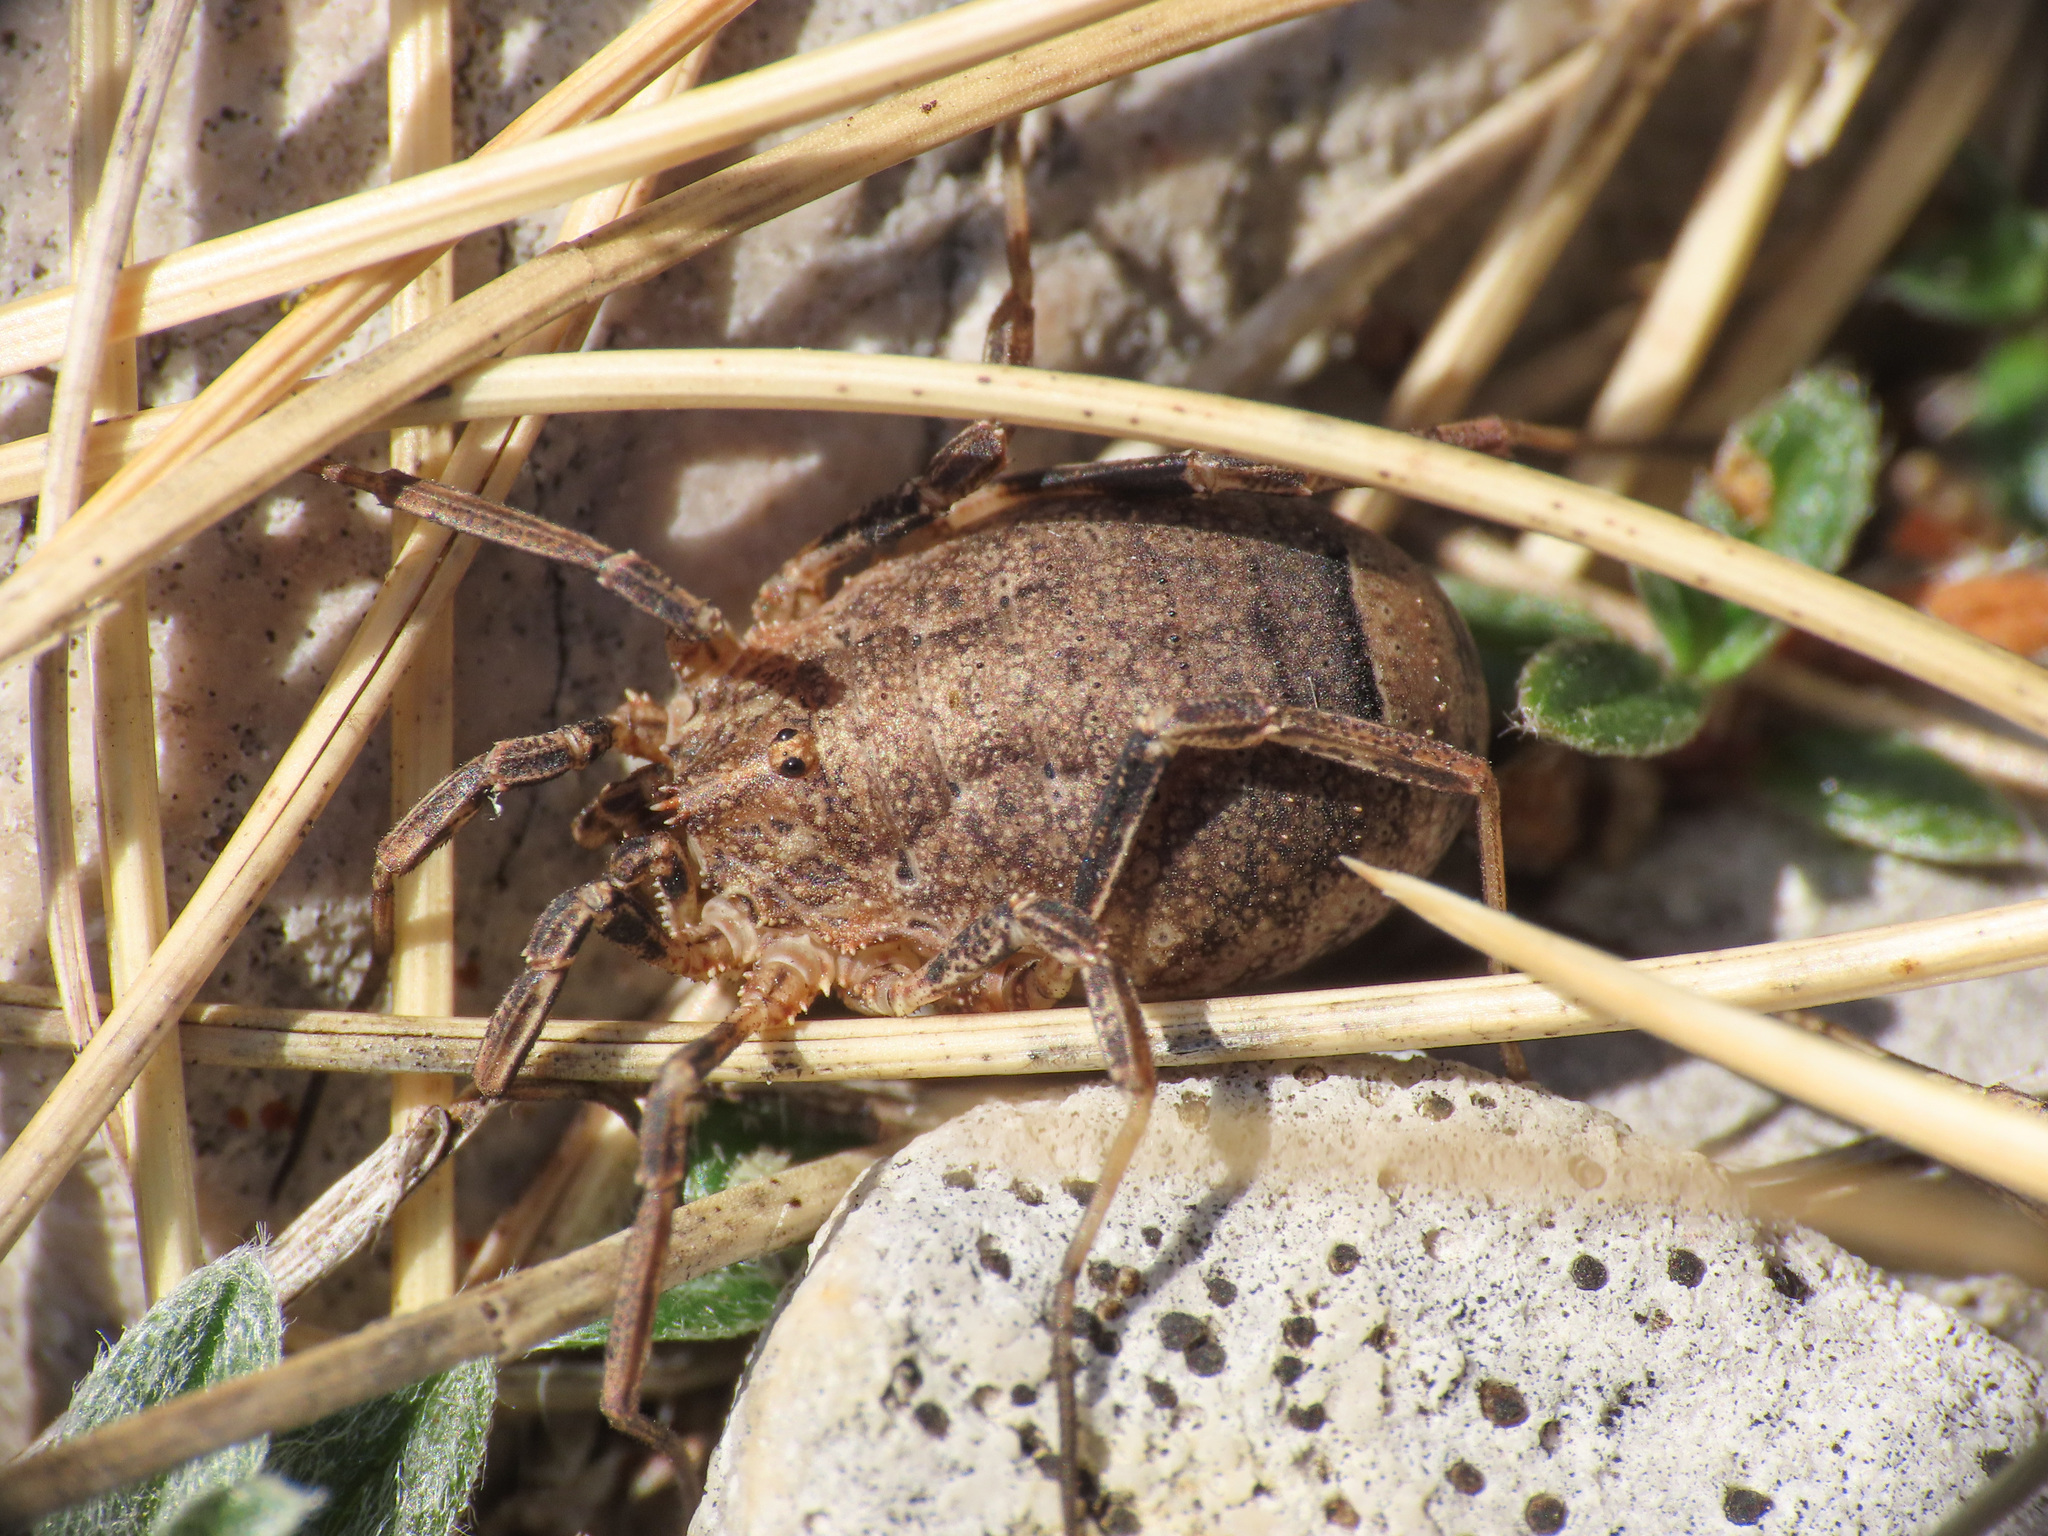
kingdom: Animalia
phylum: Arthropoda
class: Arachnida
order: Opiliones
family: Phalangiidae
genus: Odiellus
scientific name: Odiellus spinosus
